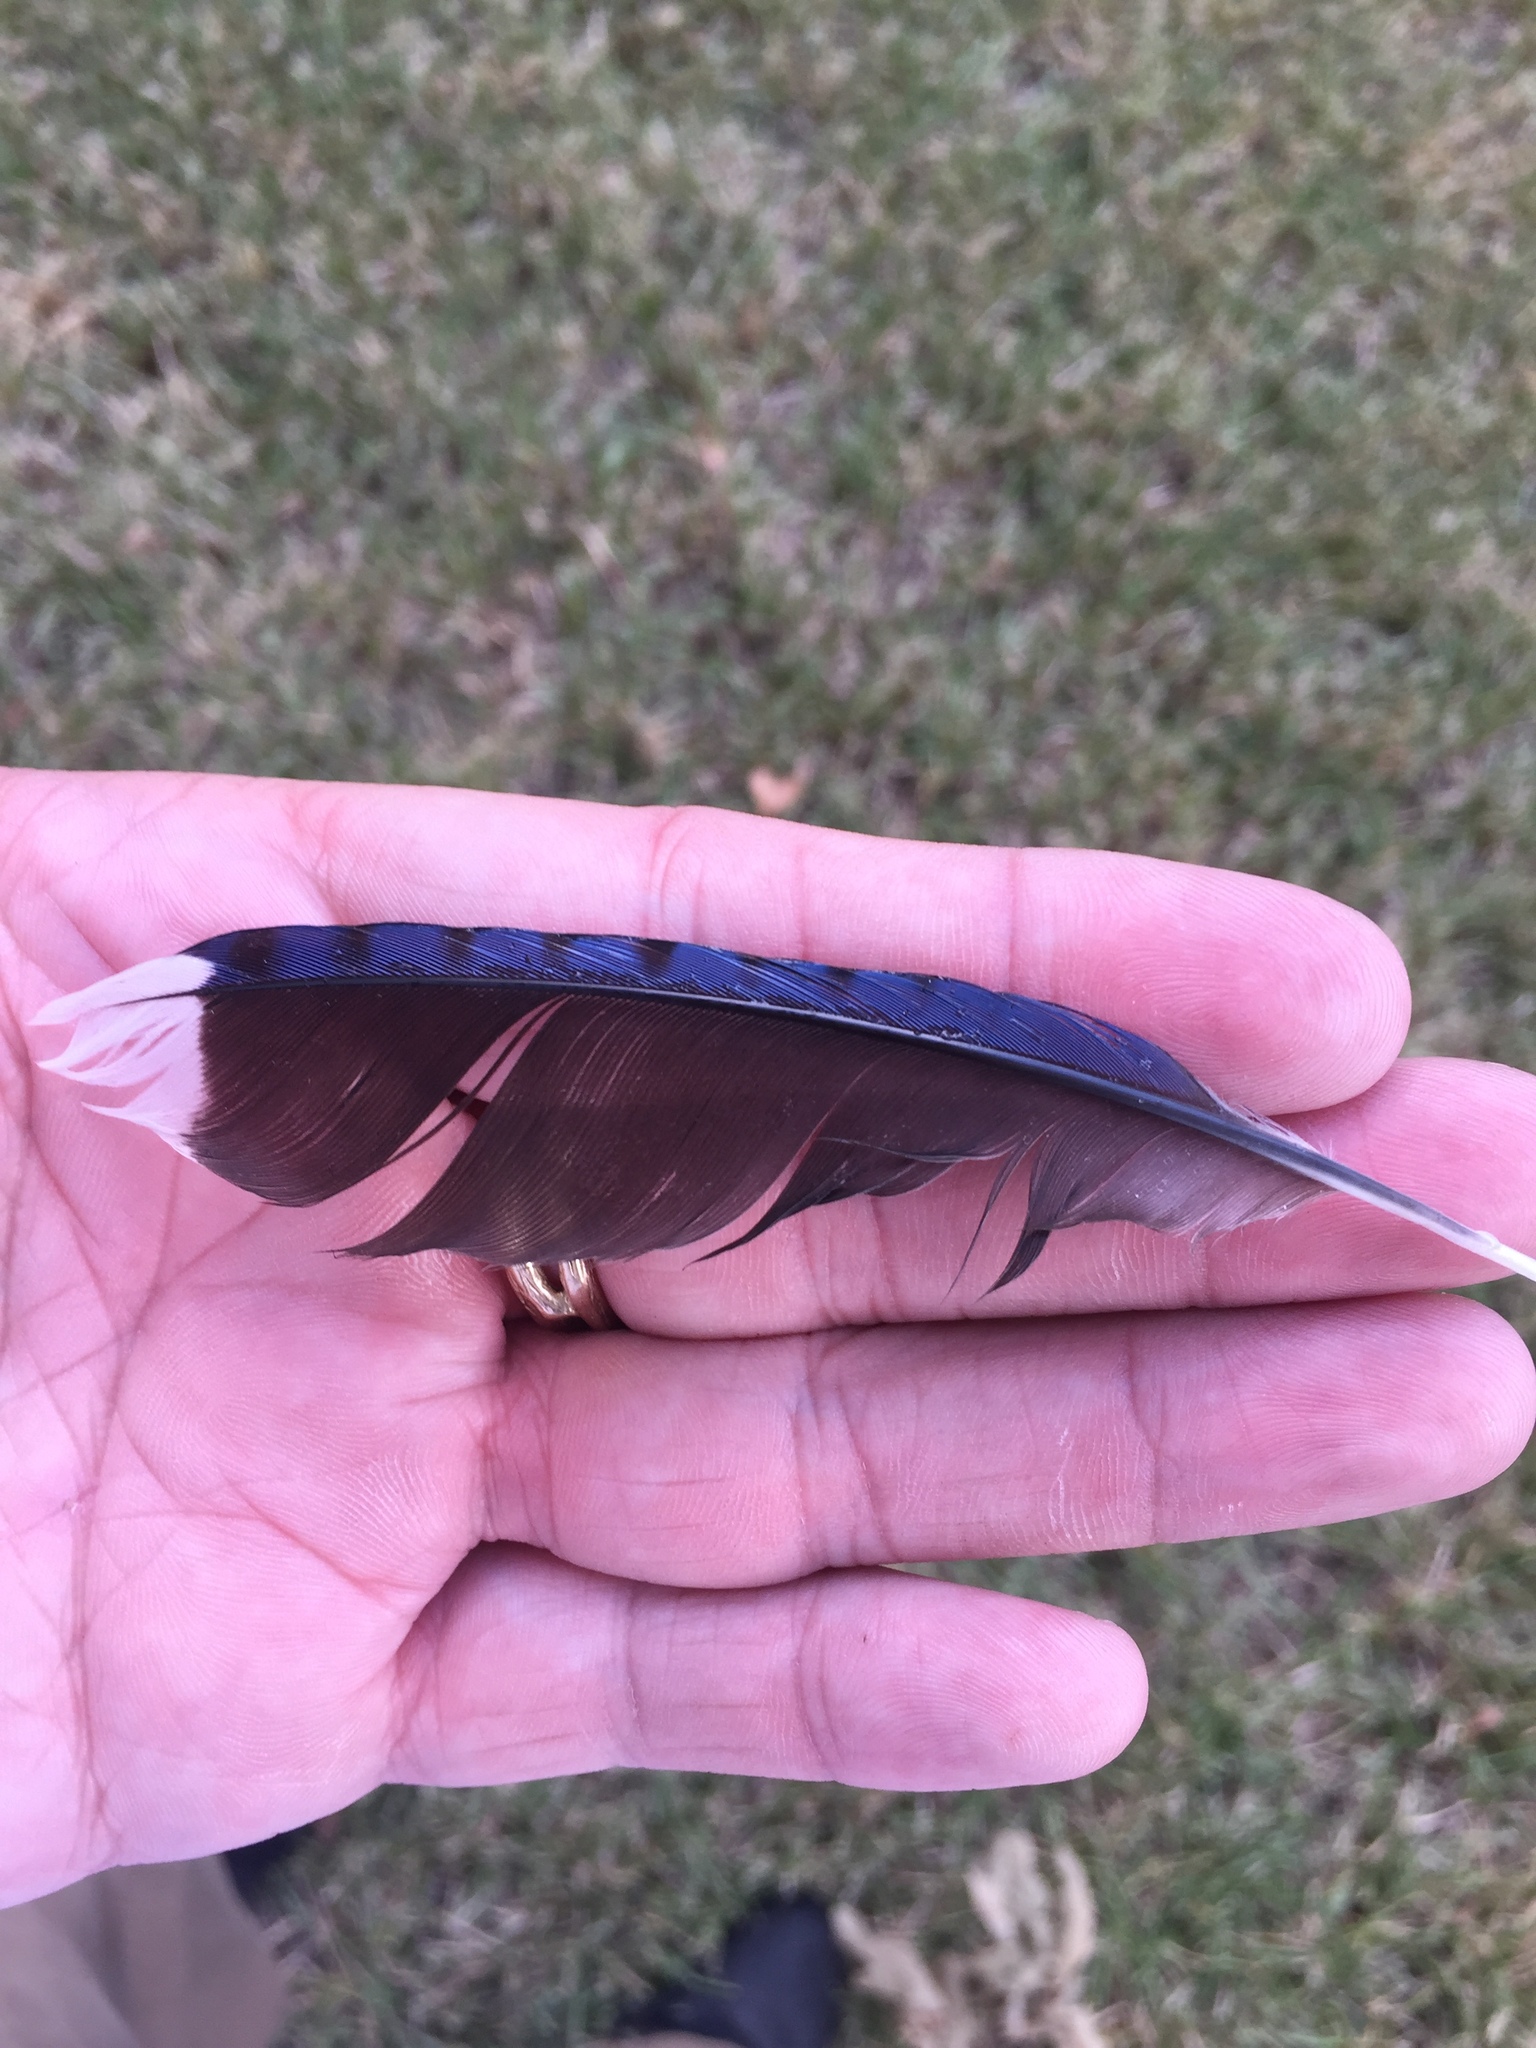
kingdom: Animalia
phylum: Chordata
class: Aves
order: Passeriformes
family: Corvidae
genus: Cyanocitta
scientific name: Cyanocitta cristata
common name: Blue jay
